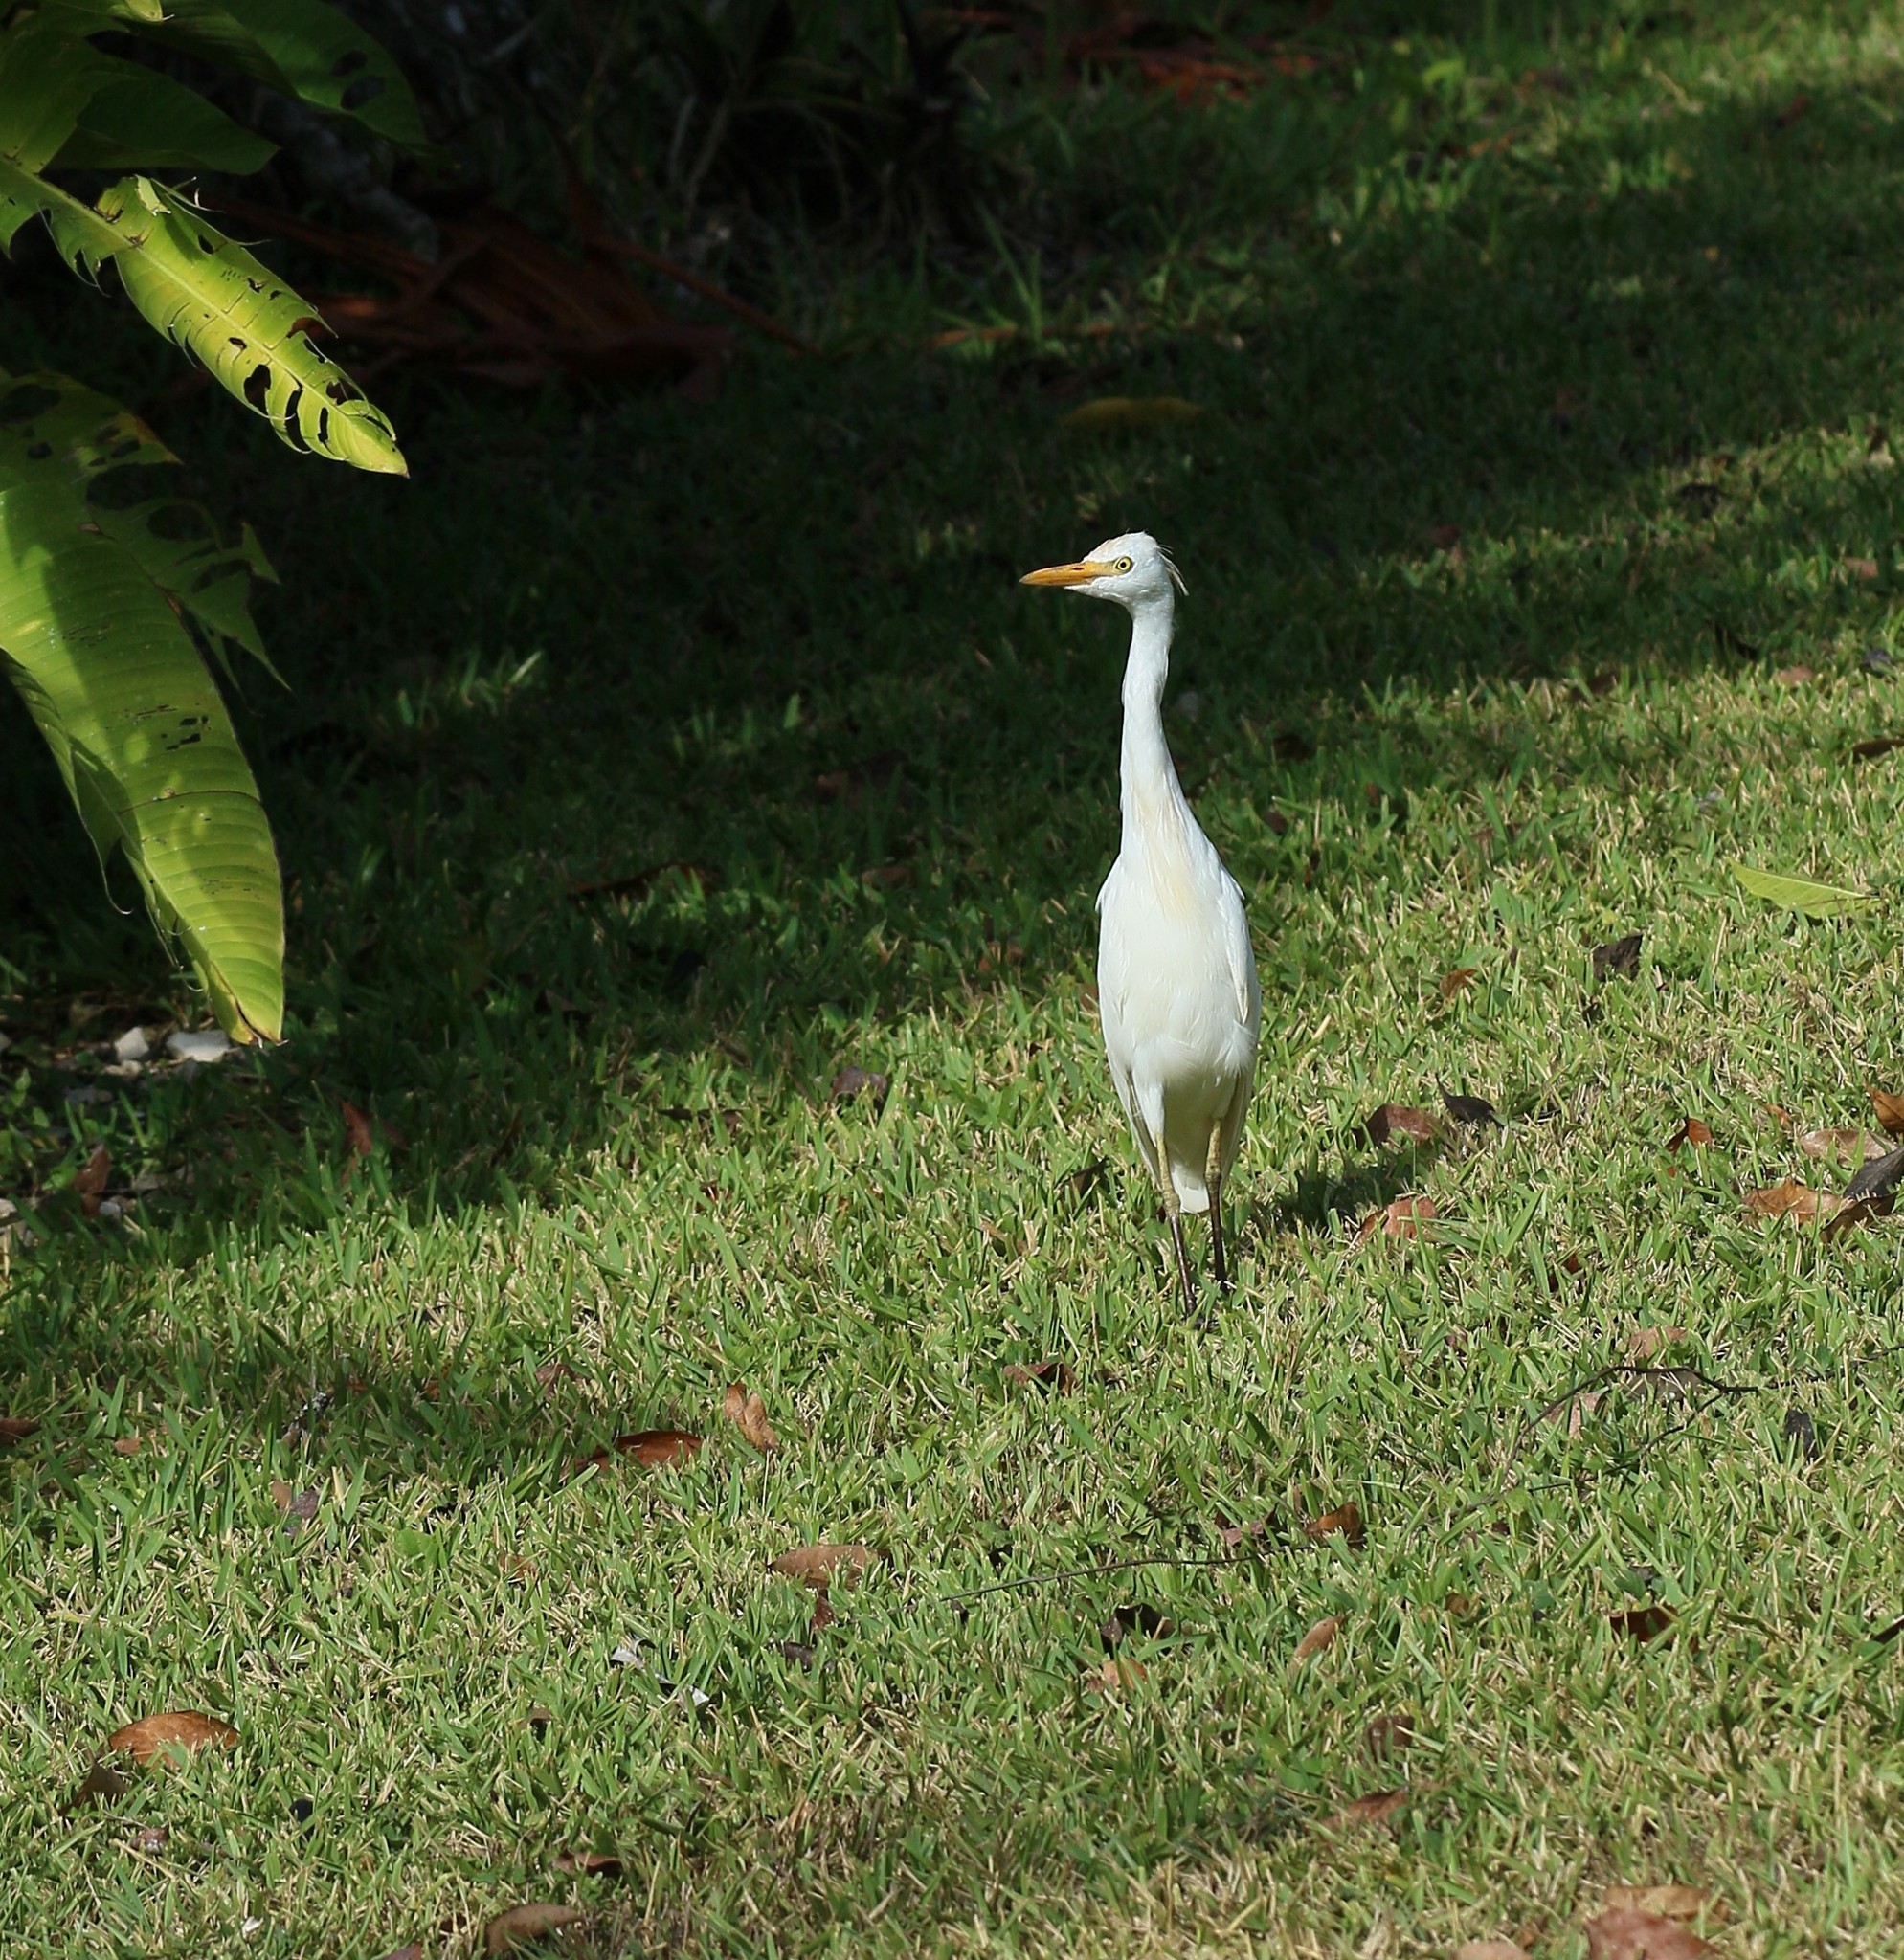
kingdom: Animalia
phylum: Chordata
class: Aves
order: Pelecaniformes
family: Ardeidae
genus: Bubulcus
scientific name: Bubulcus ibis
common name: Cattle egret
